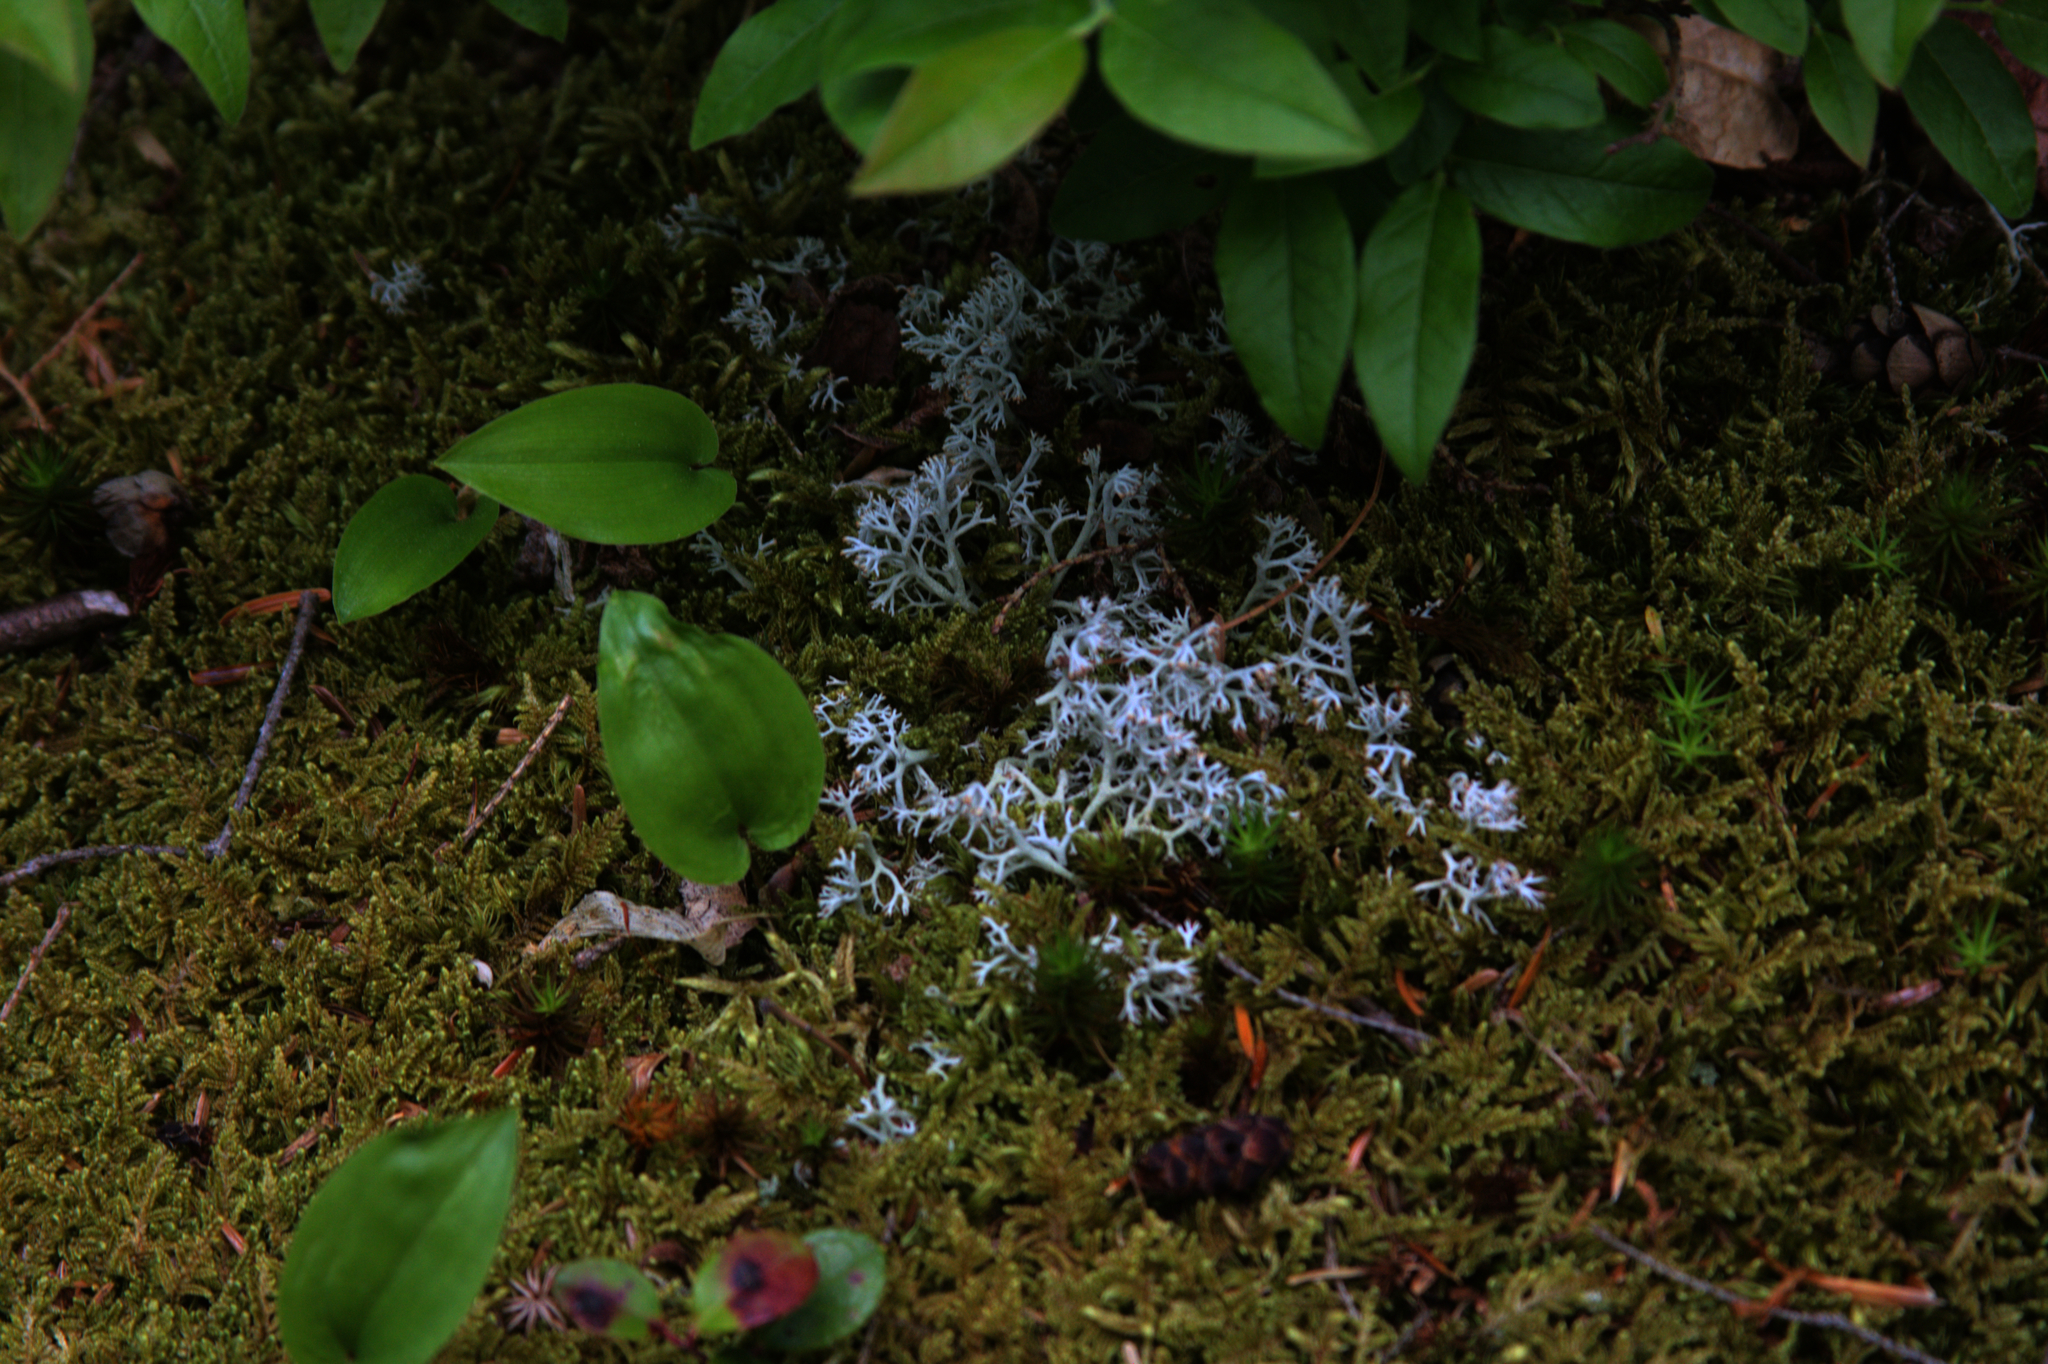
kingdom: Plantae
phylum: Tracheophyta
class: Liliopsida
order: Asparagales
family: Asparagaceae
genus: Maianthemum
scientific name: Maianthemum canadense
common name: False lily-of-the-valley
